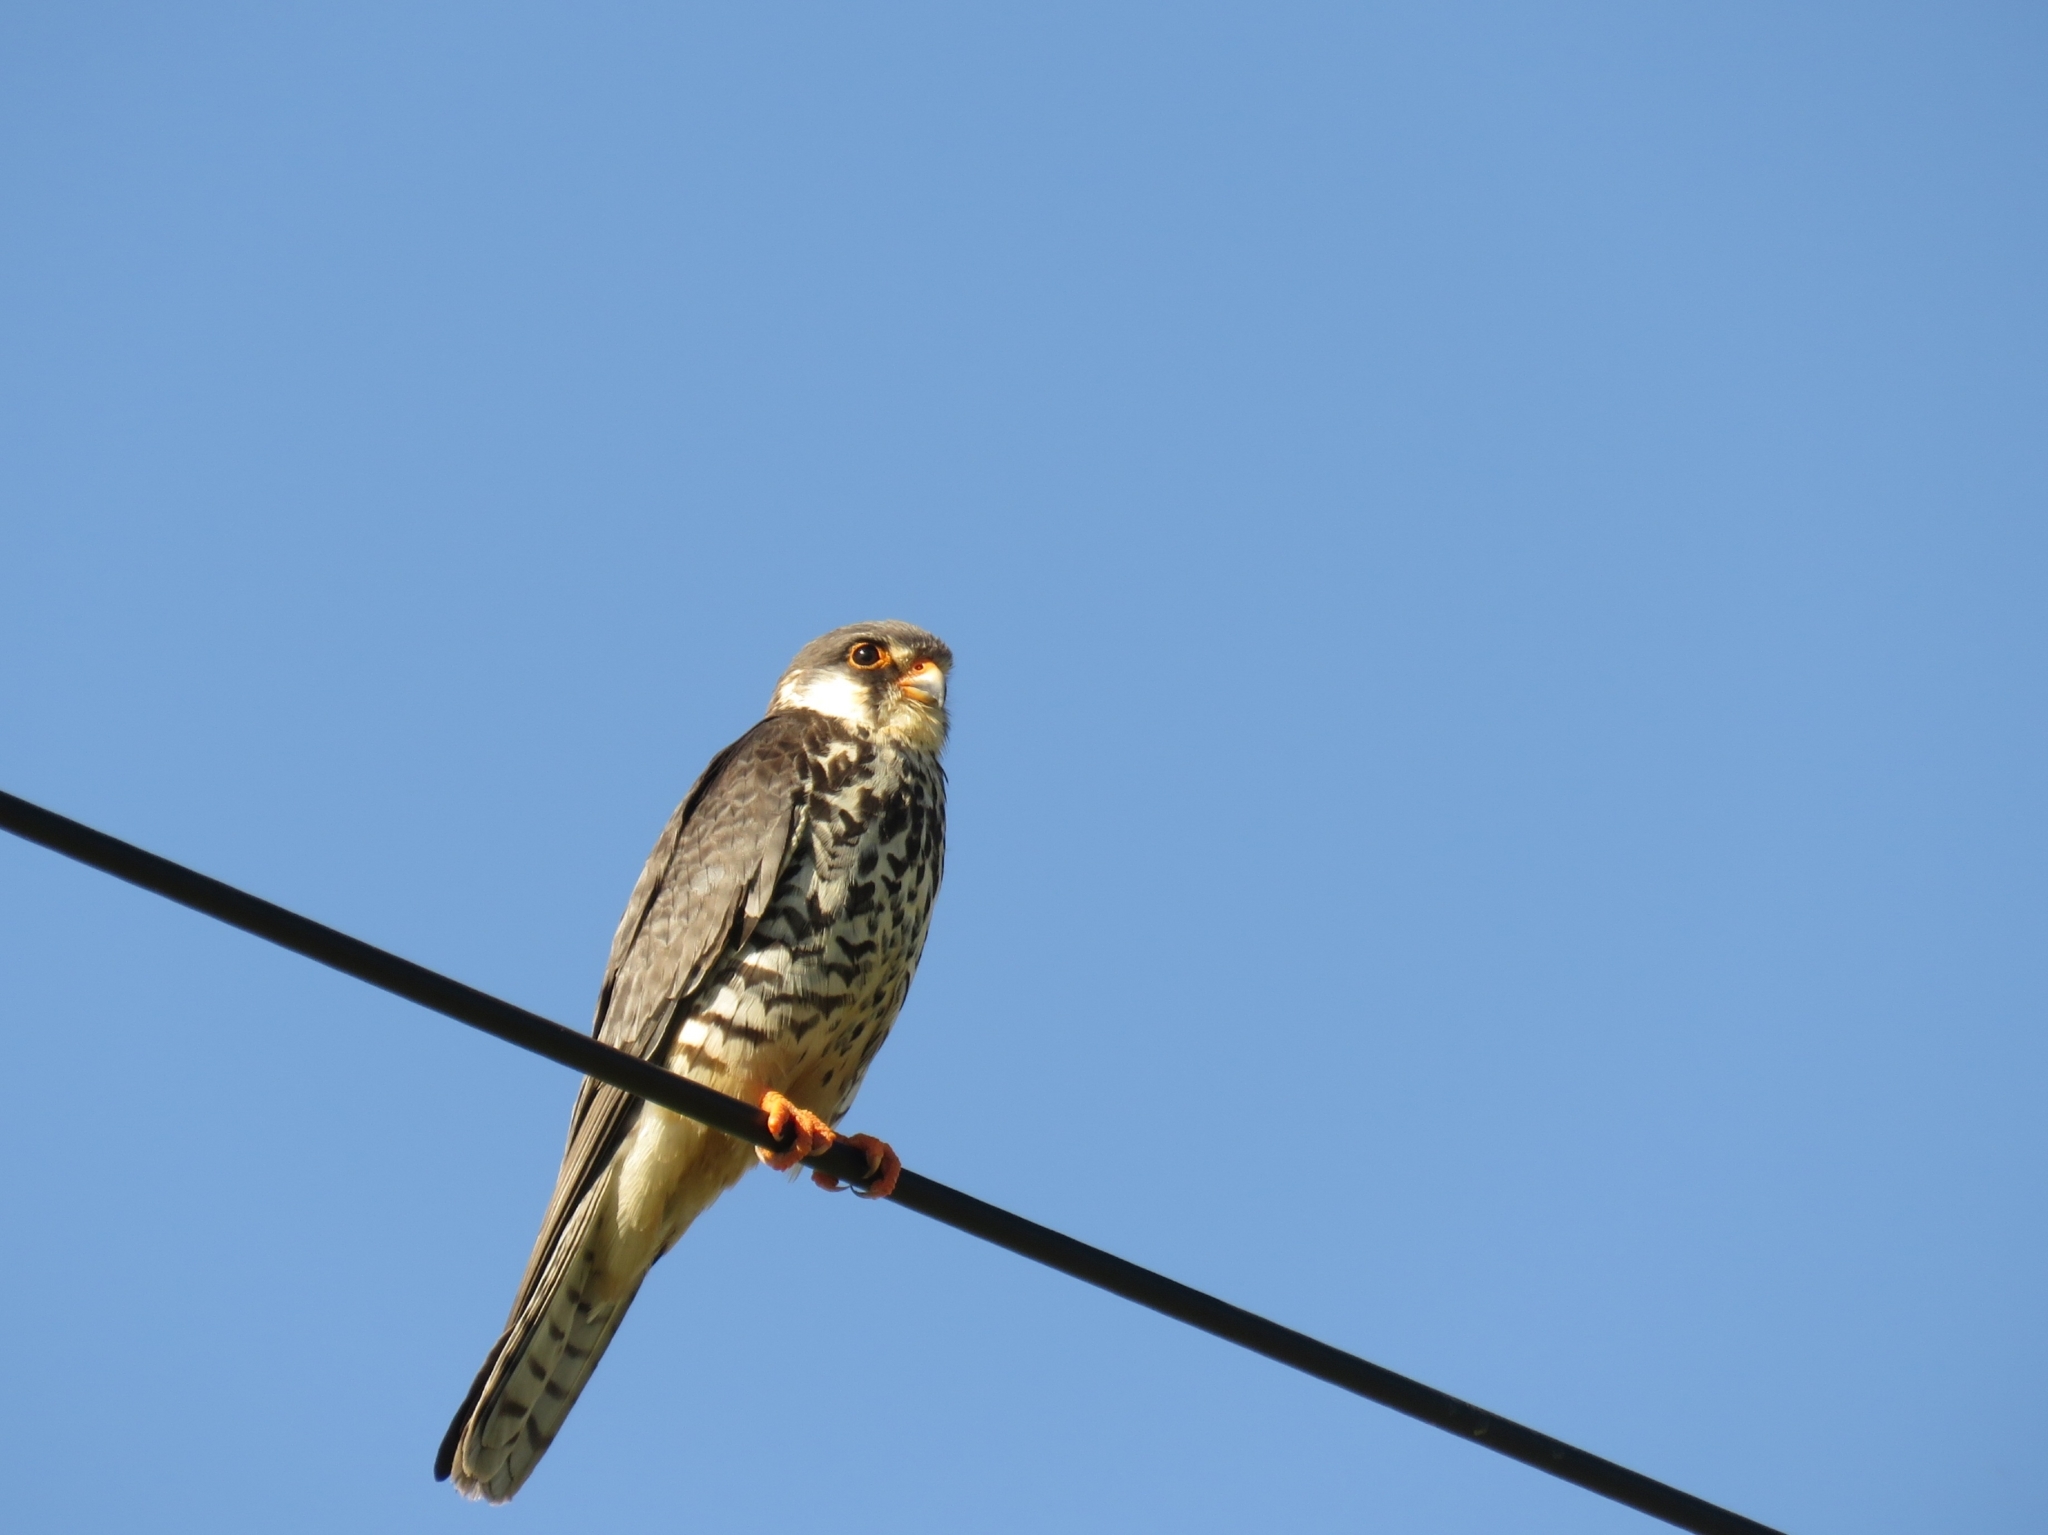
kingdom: Animalia
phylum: Chordata
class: Aves
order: Falconiformes
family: Falconidae
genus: Falco
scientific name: Falco amurensis
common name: Amur falcon
